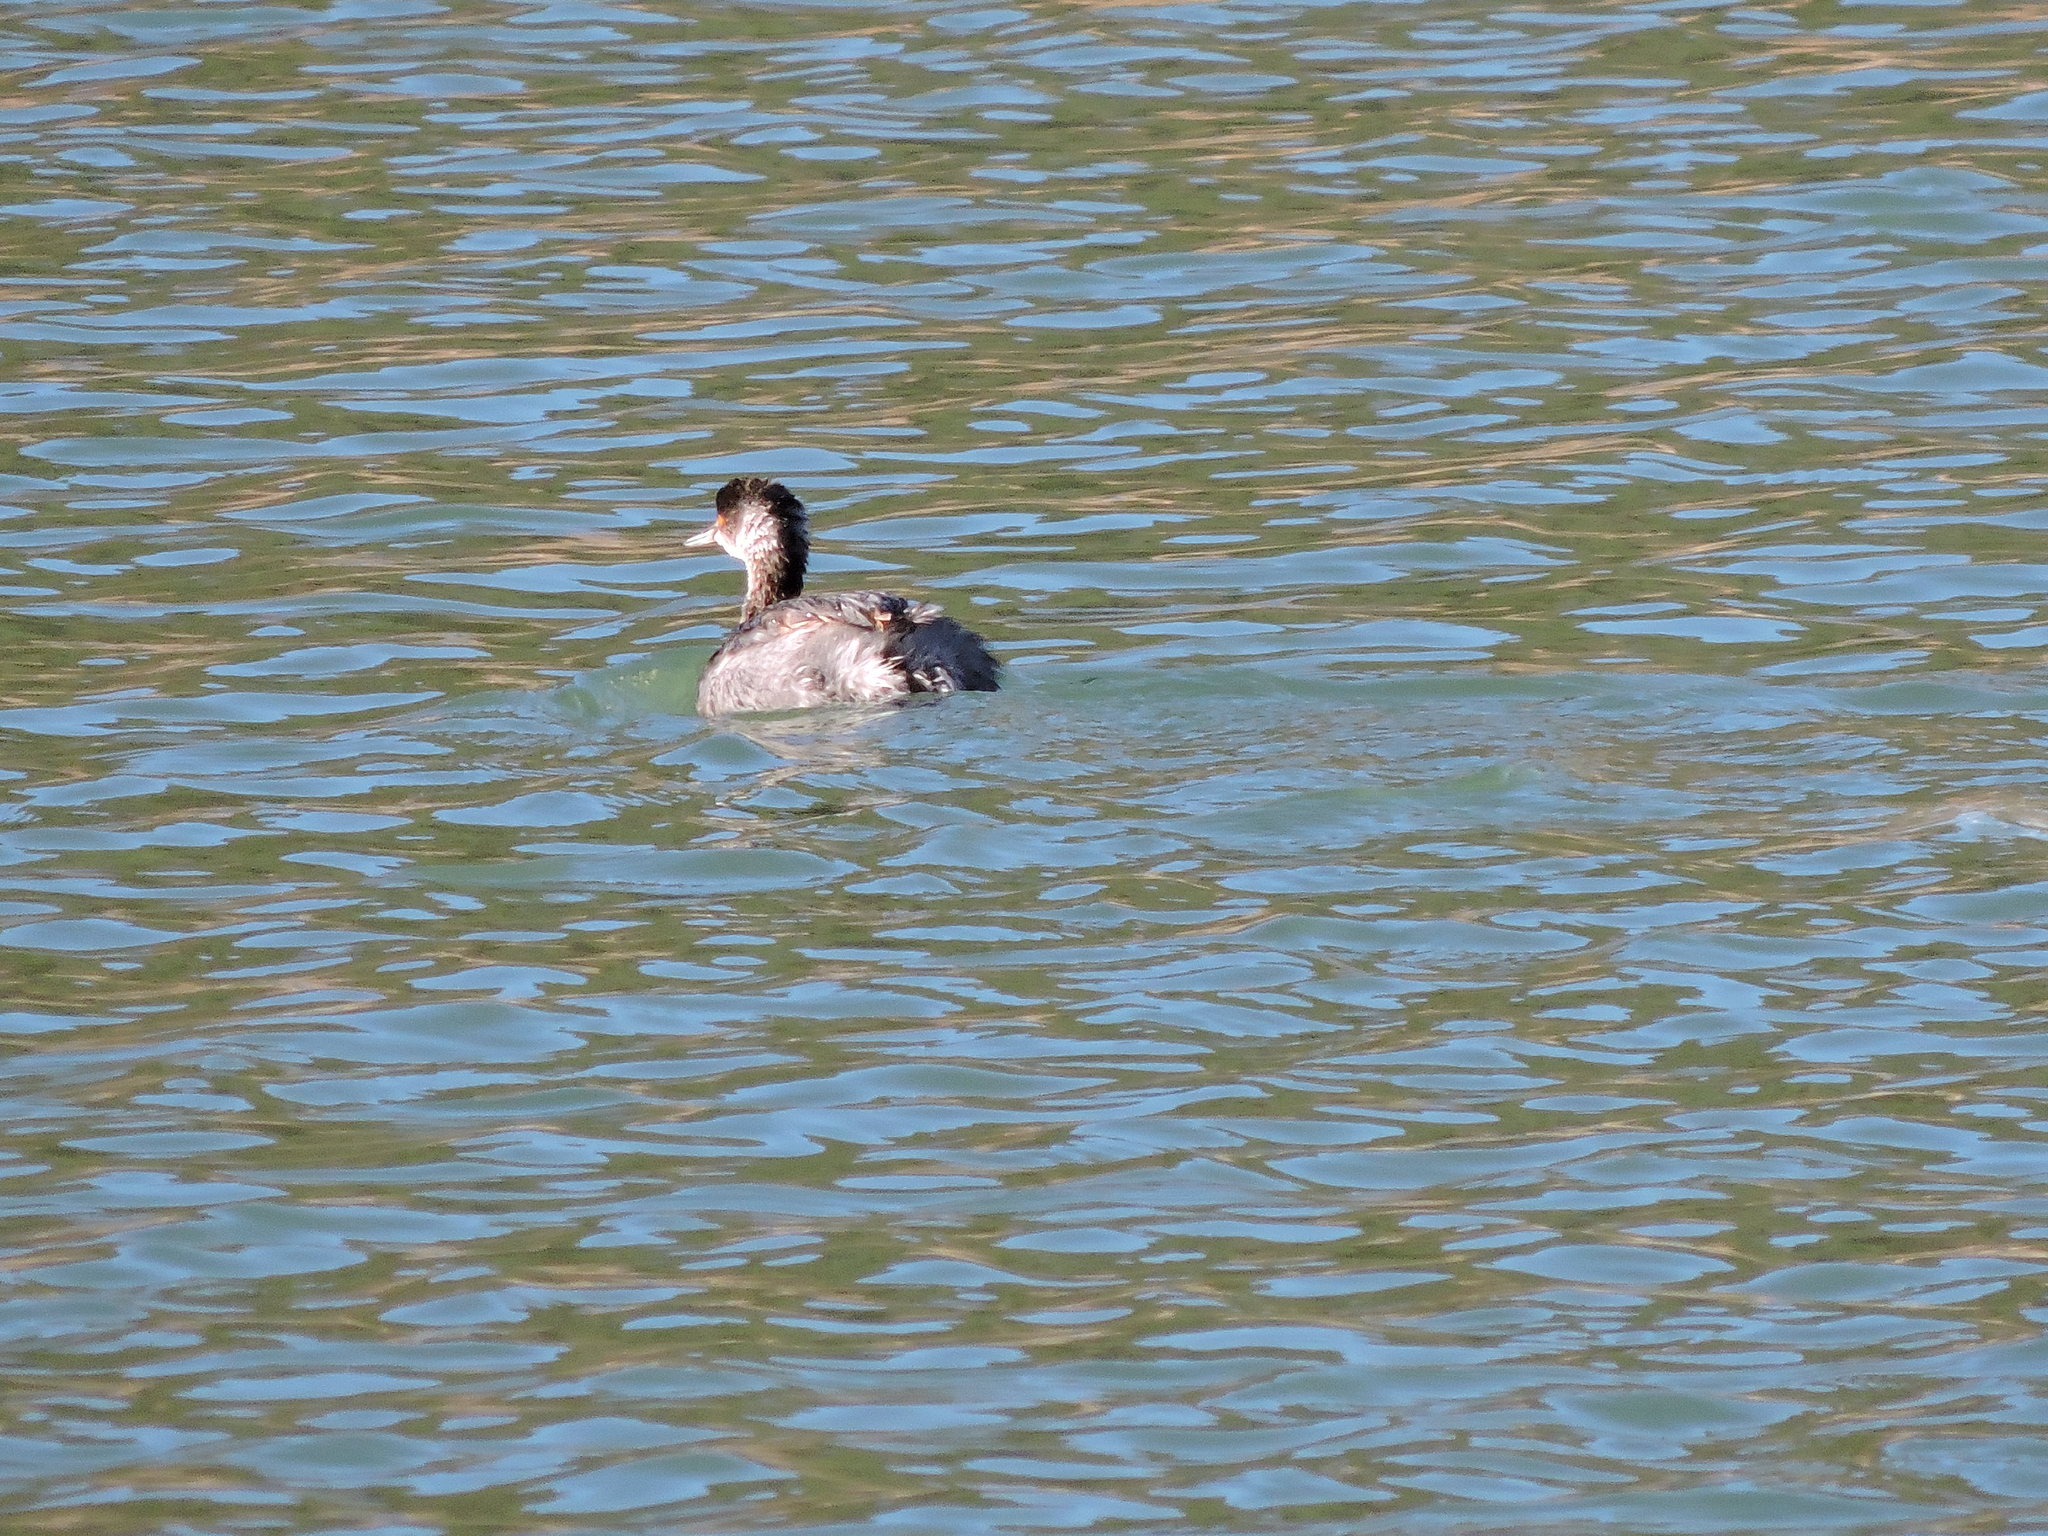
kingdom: Animalia
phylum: Chordata
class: Aves
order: Podicipediformes
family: Podicipedidae
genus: Podiceps
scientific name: Podiceps nigricollis
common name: Black-necked grebe
